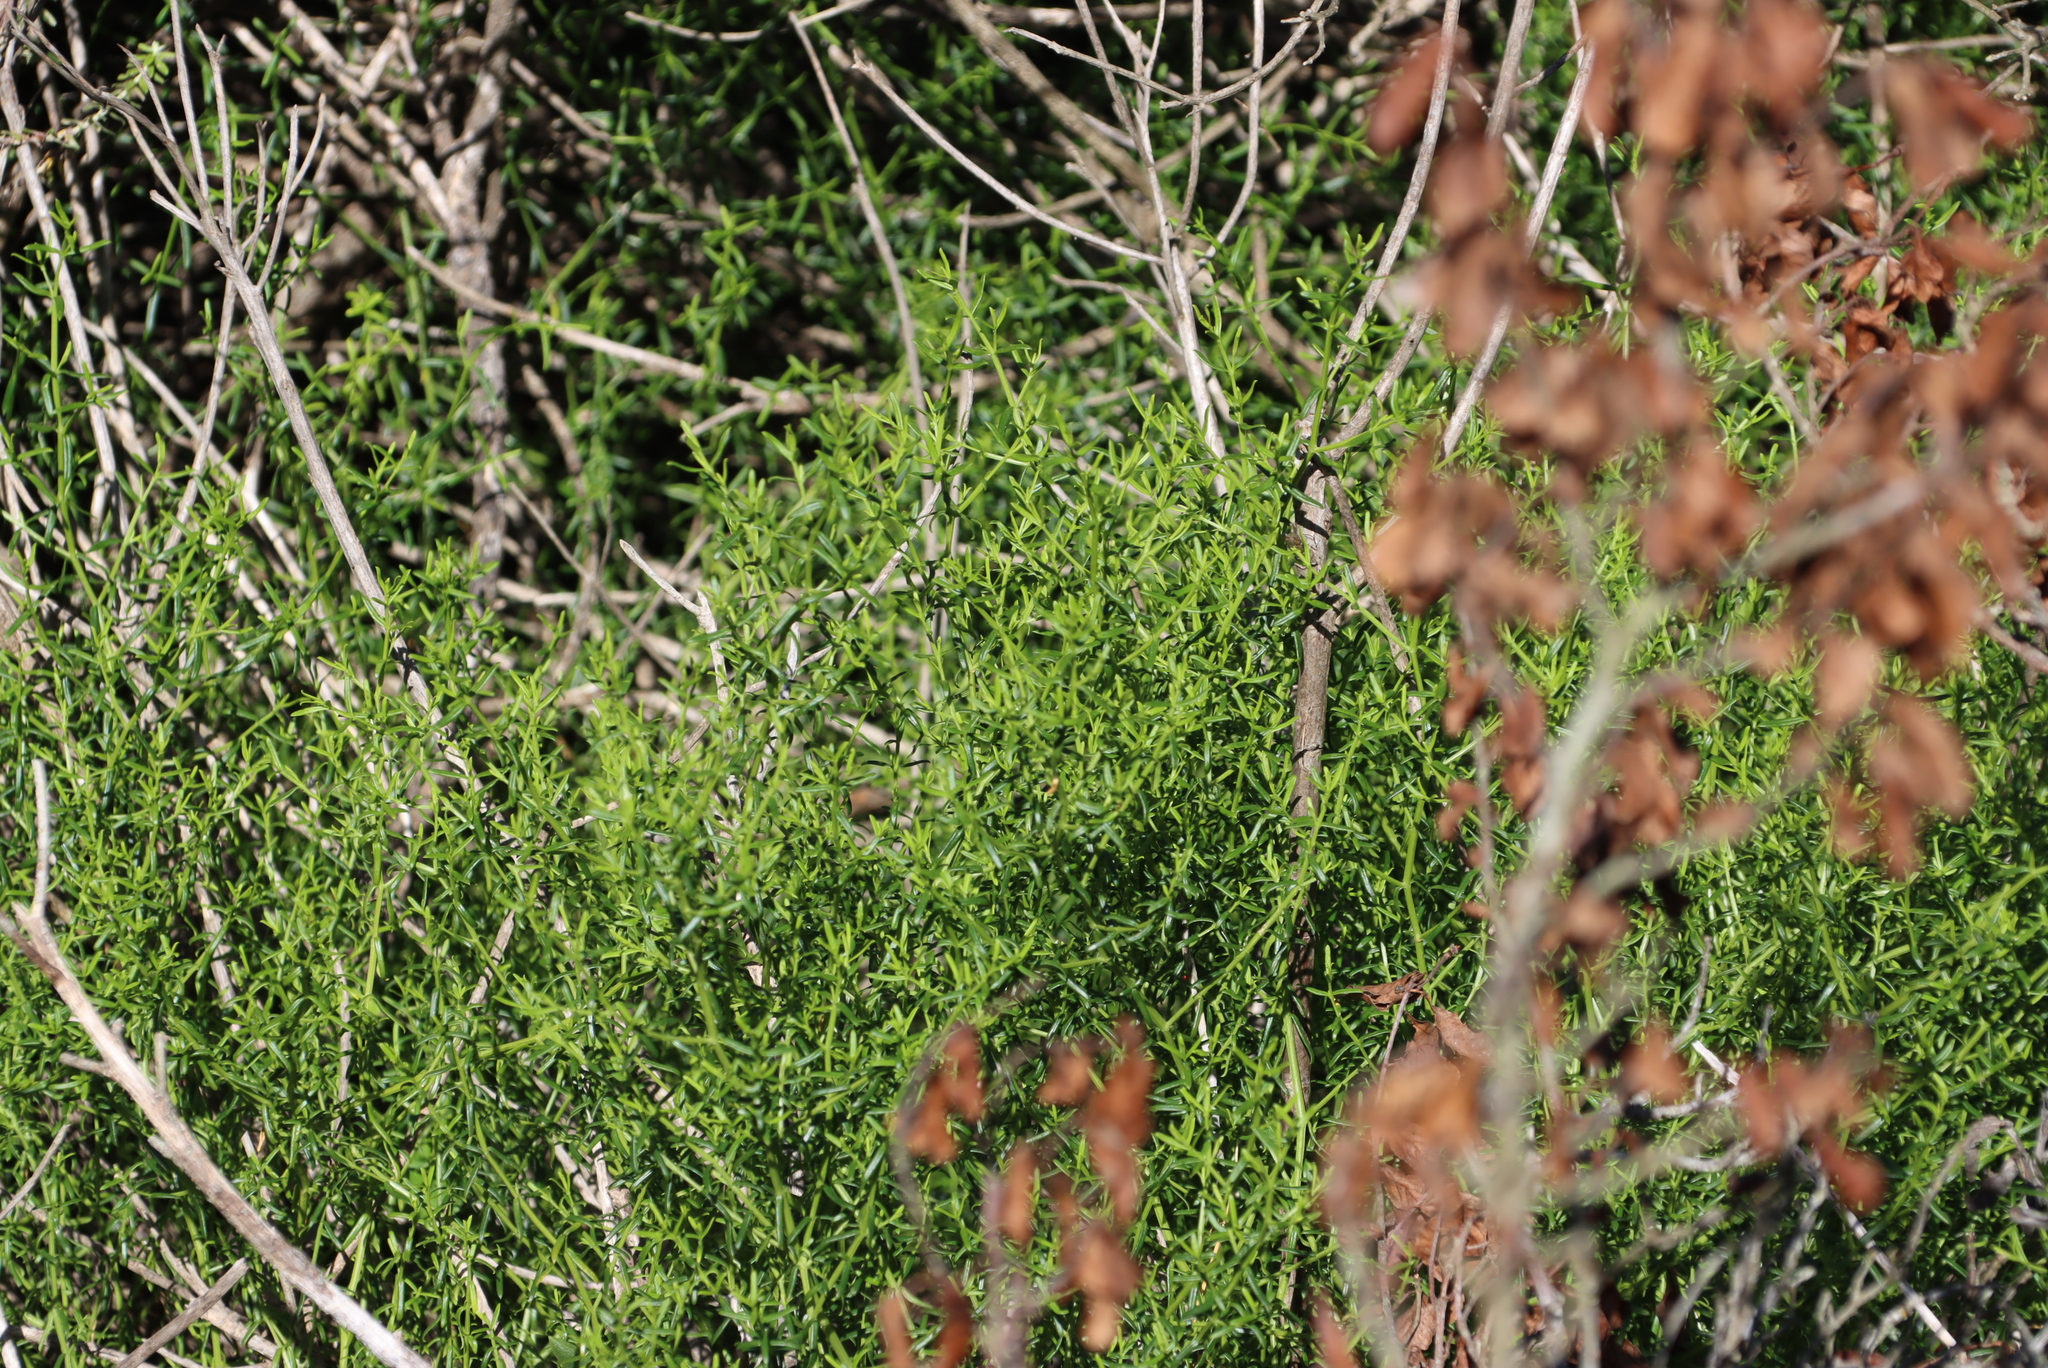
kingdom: Plantae
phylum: Tracheophyta
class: Magnoliopsida
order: Gentianales
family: Gentianaceae
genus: Chironia
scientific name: Chironia baccifera
